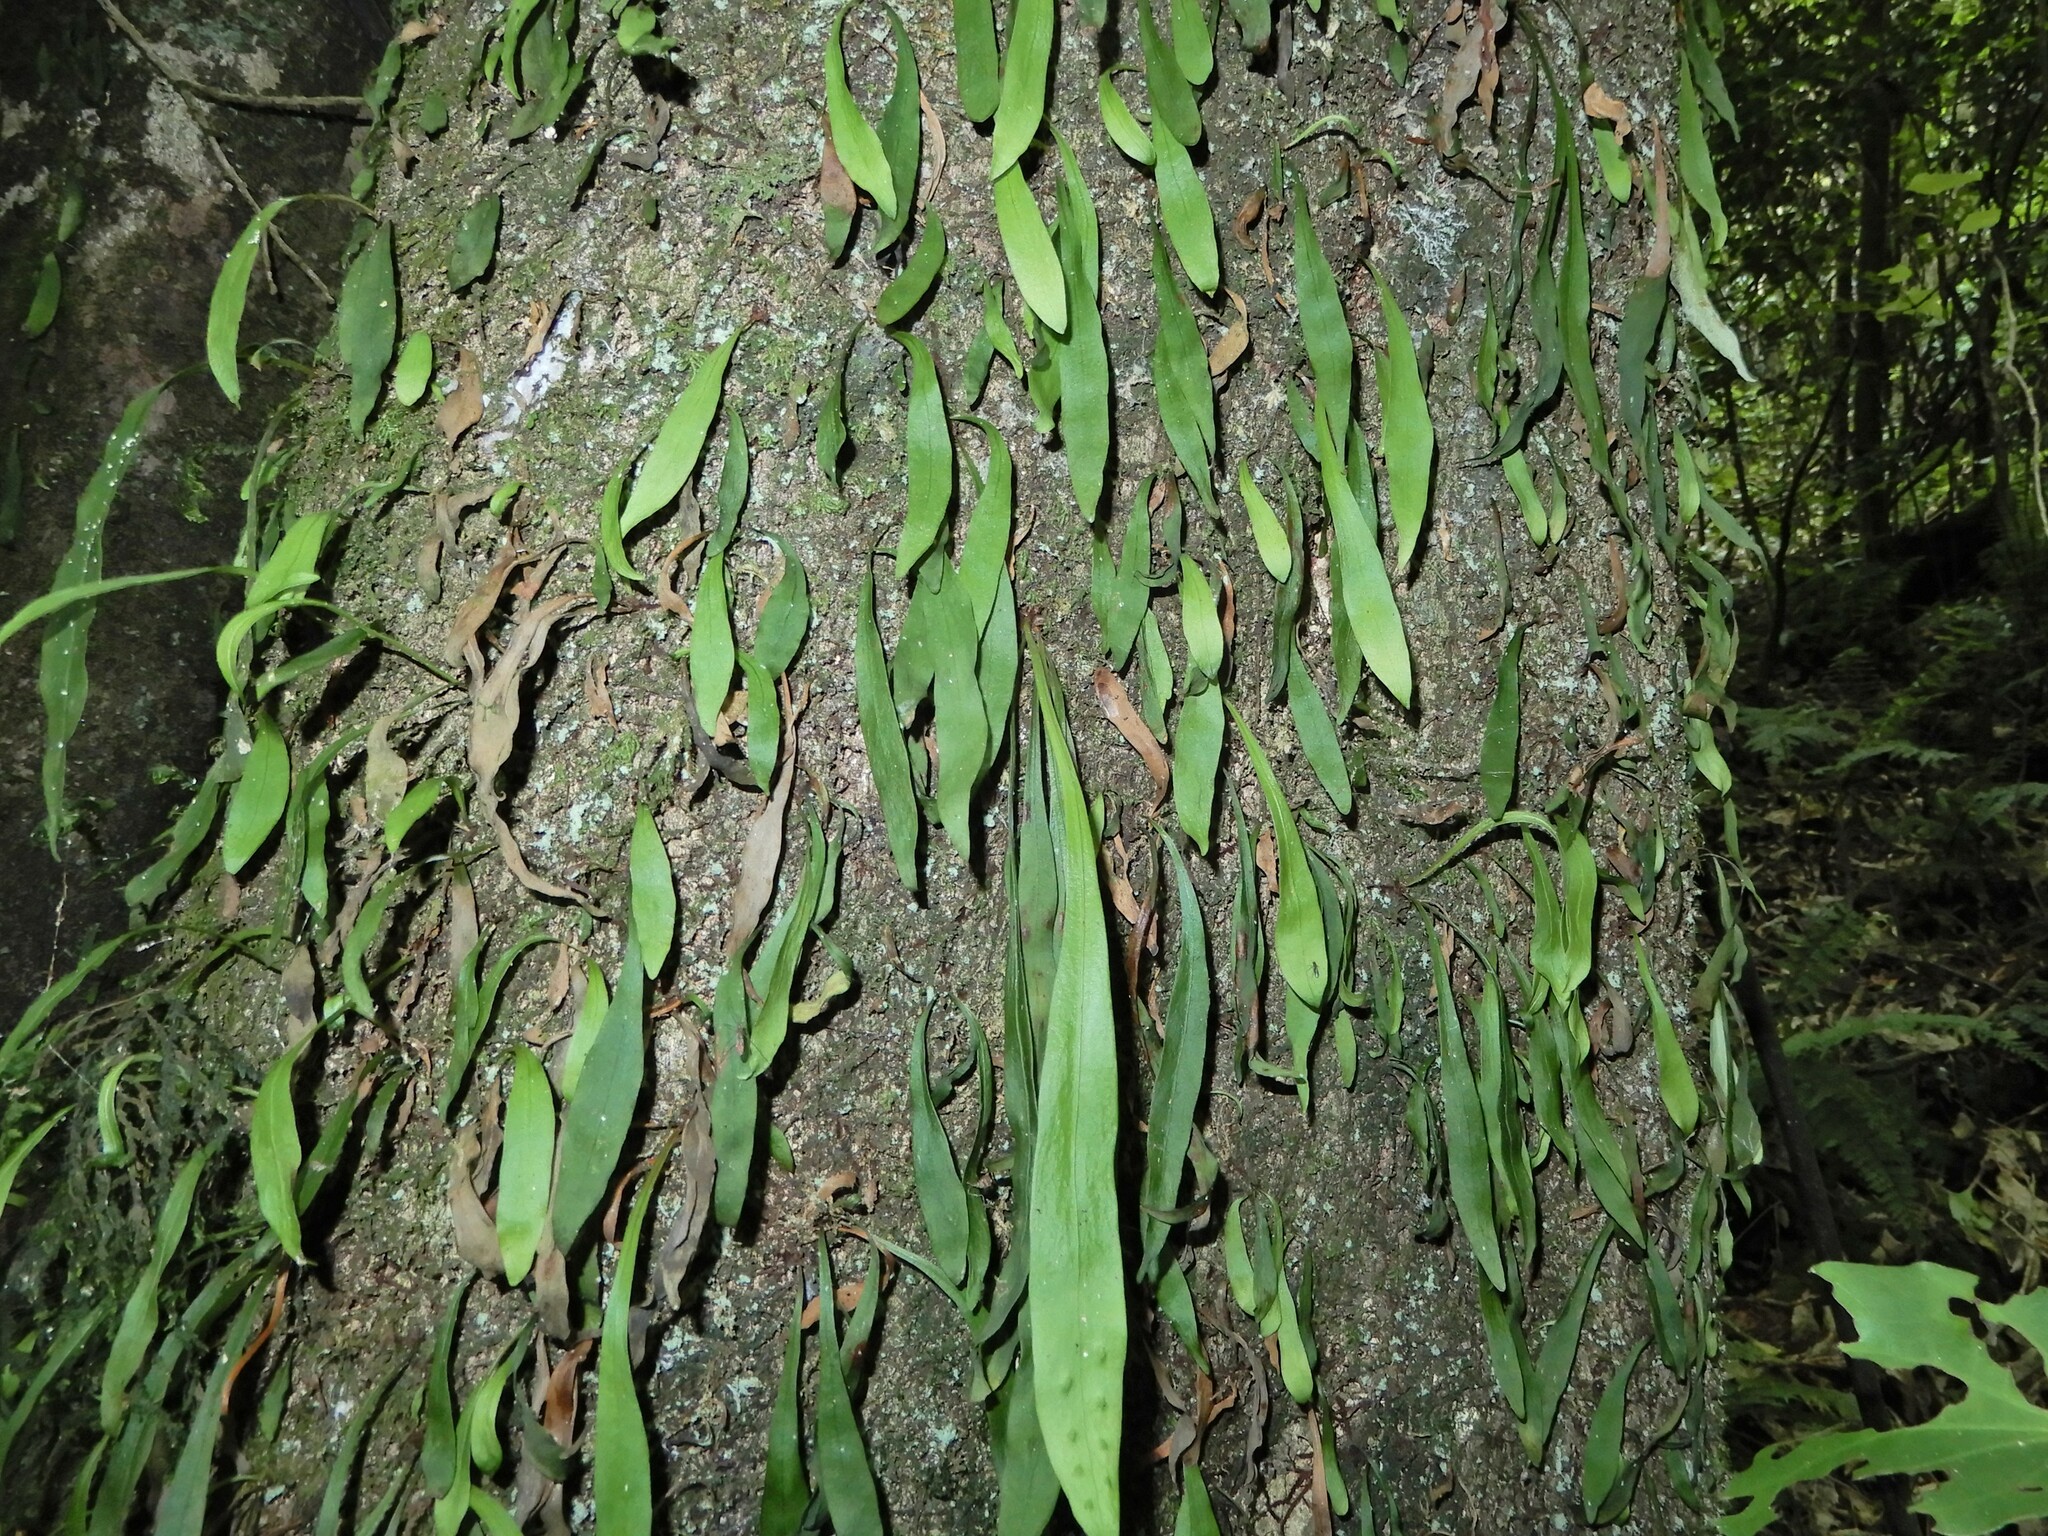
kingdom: Plantae
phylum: Tracheophyta
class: Polypodiopsida
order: Polypodiales
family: Polypodiaceae
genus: Loxogramme
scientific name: Loxogramme dictyopteris
